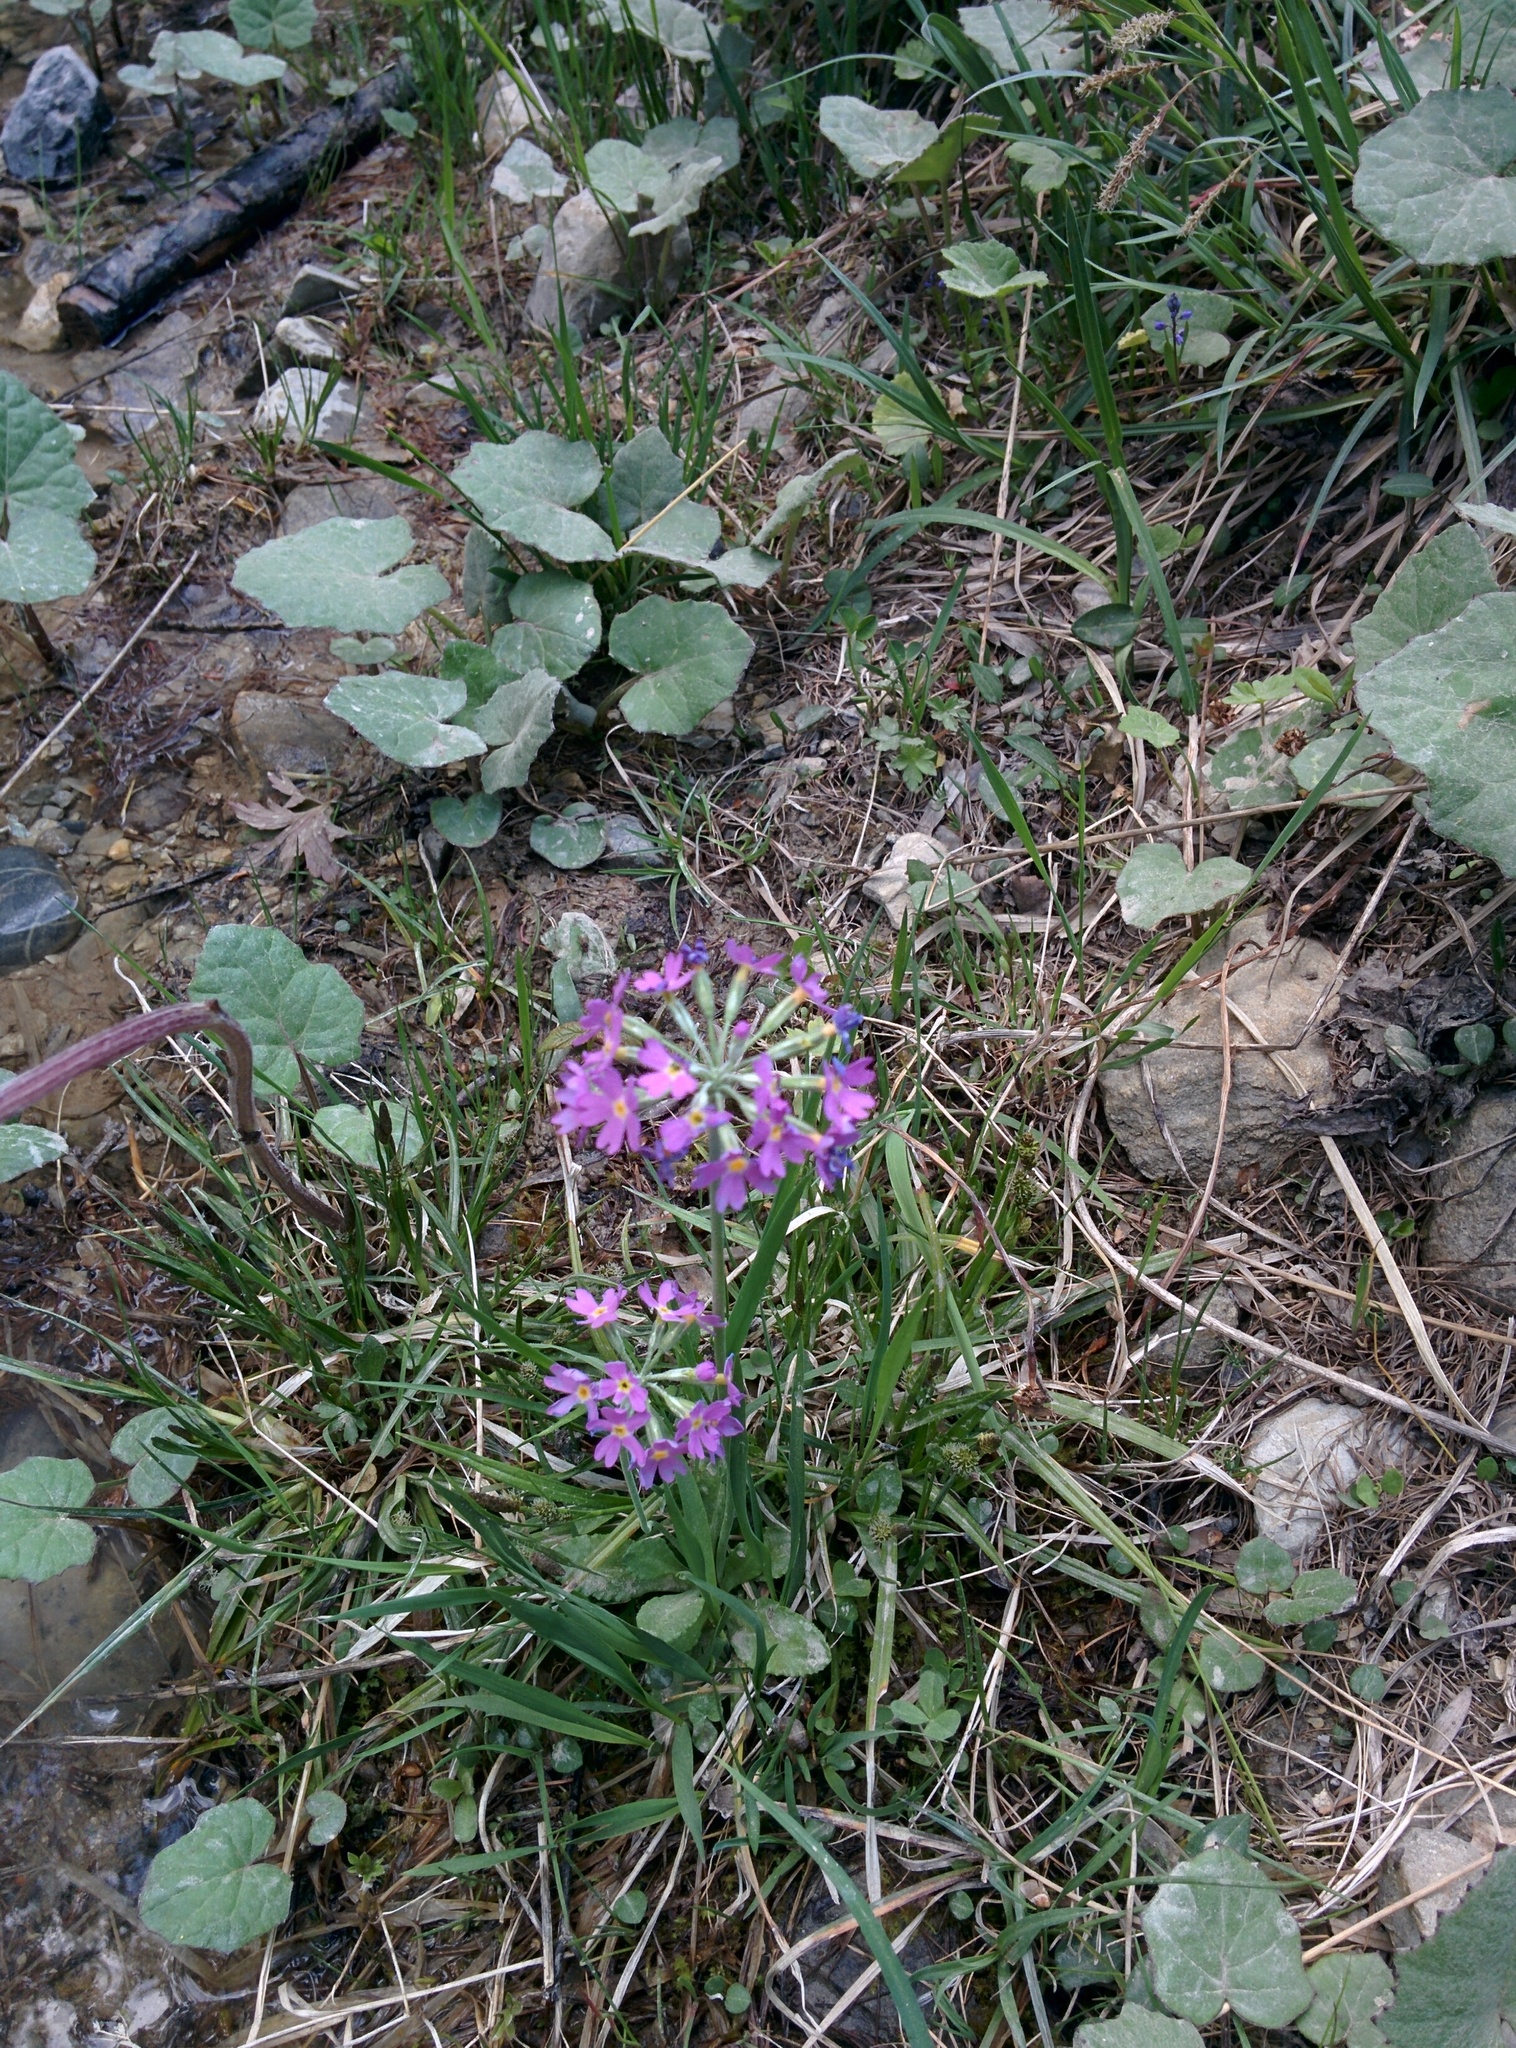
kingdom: Plantae
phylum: Tracheophyta
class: Magnoliopsida
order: Ericales
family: Primulaceae
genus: Primula
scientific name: Primula farinosa
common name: Bird's-eye primrose
